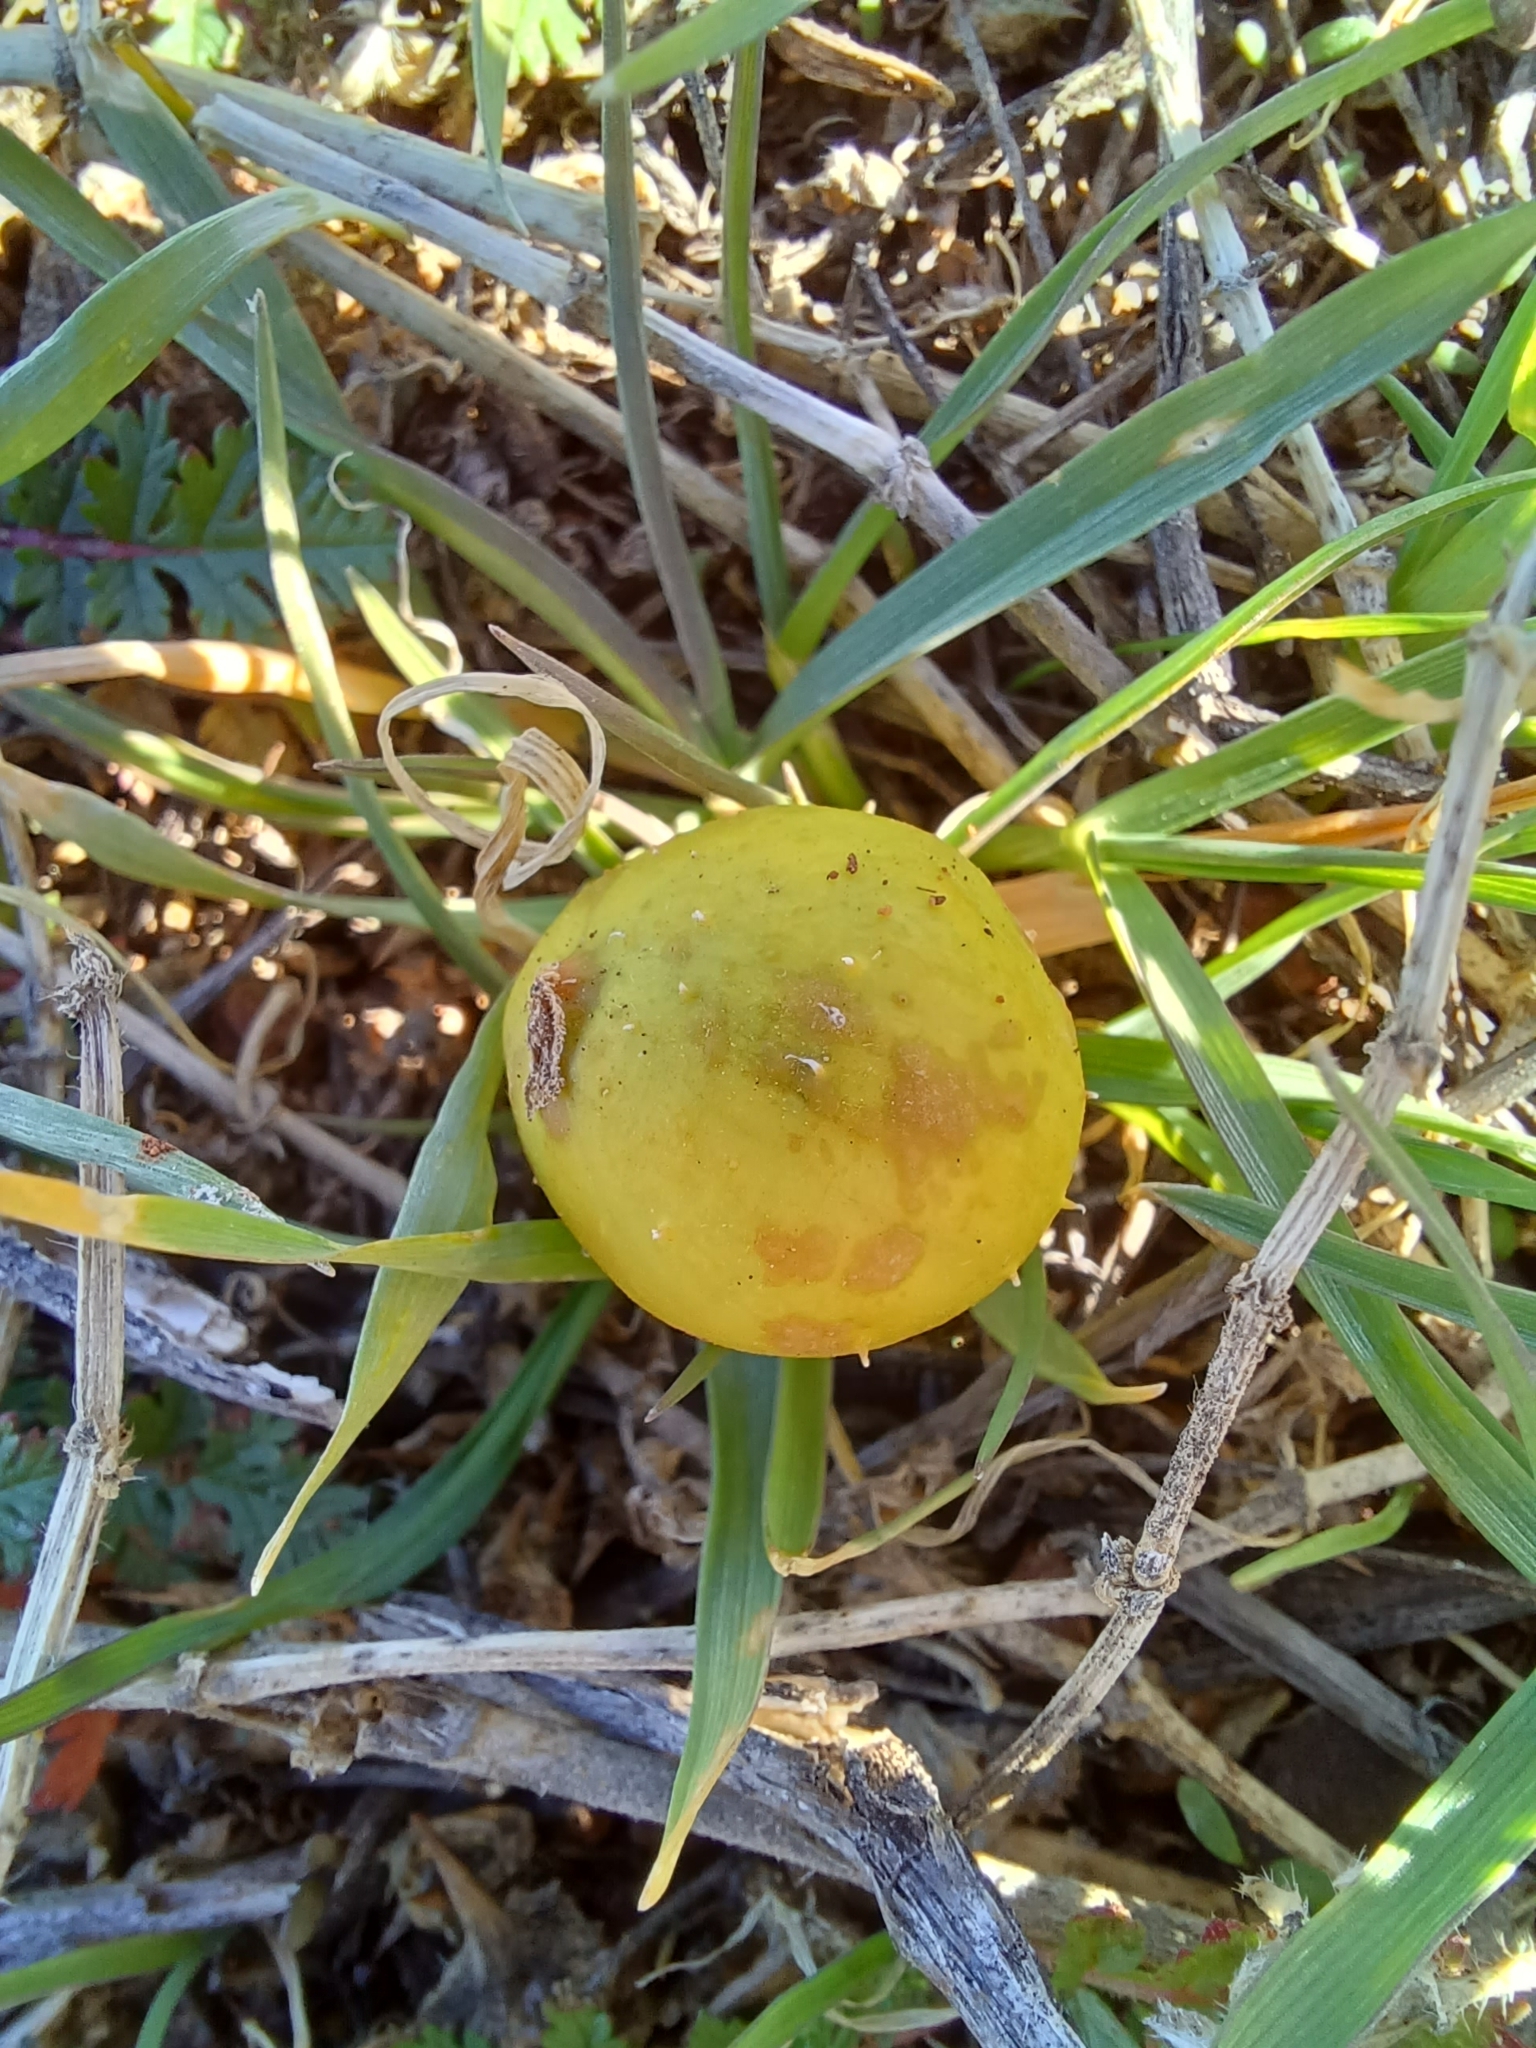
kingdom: Plantae
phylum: Tracheophyta
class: Magnoliopsida
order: Cucurbitales
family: Cucurbitaceae
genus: Cucumis
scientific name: Cucumis myriocarpus
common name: Gooseberry cucumber
